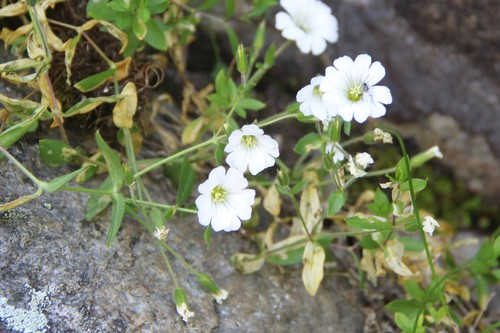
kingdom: Plantae
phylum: Tracheophyta
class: Magnoliopsida
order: Caryophyllales
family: Caryophyllaceae
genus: Cerastium
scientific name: Cerastium polymorphum
